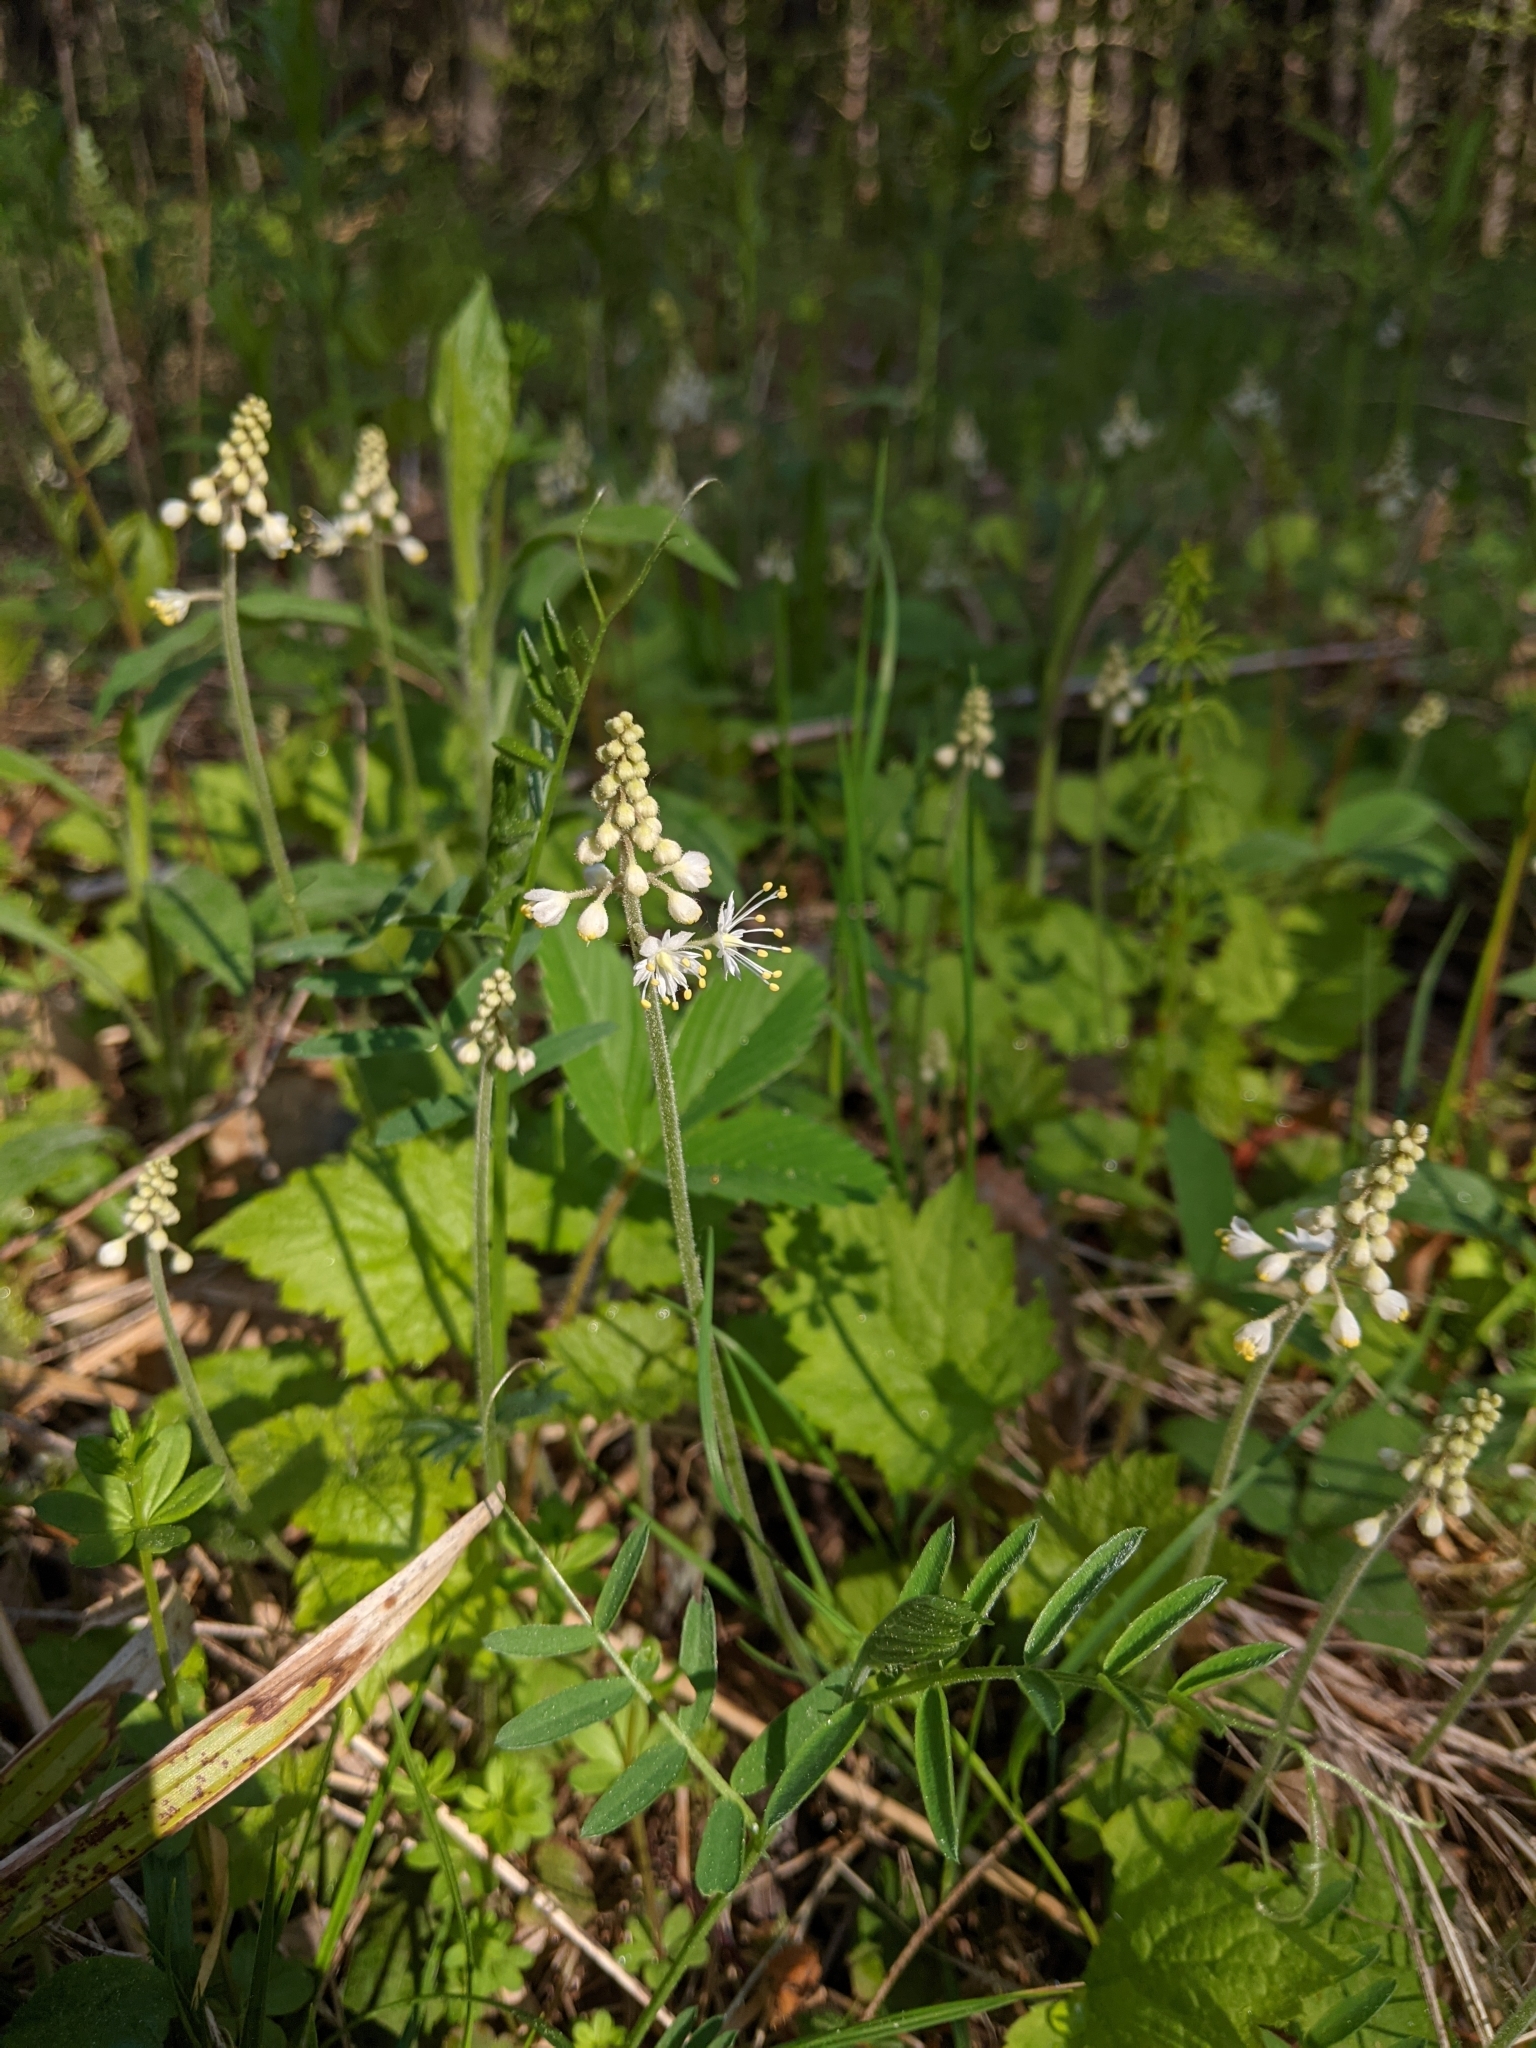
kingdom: Plantae
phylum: Tracheophyta
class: Magnoliopsida
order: Saxifragales
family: Saxifragaceae
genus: Tiarella
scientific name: Tiarella stolonifera
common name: Stoloniferous foamflower
